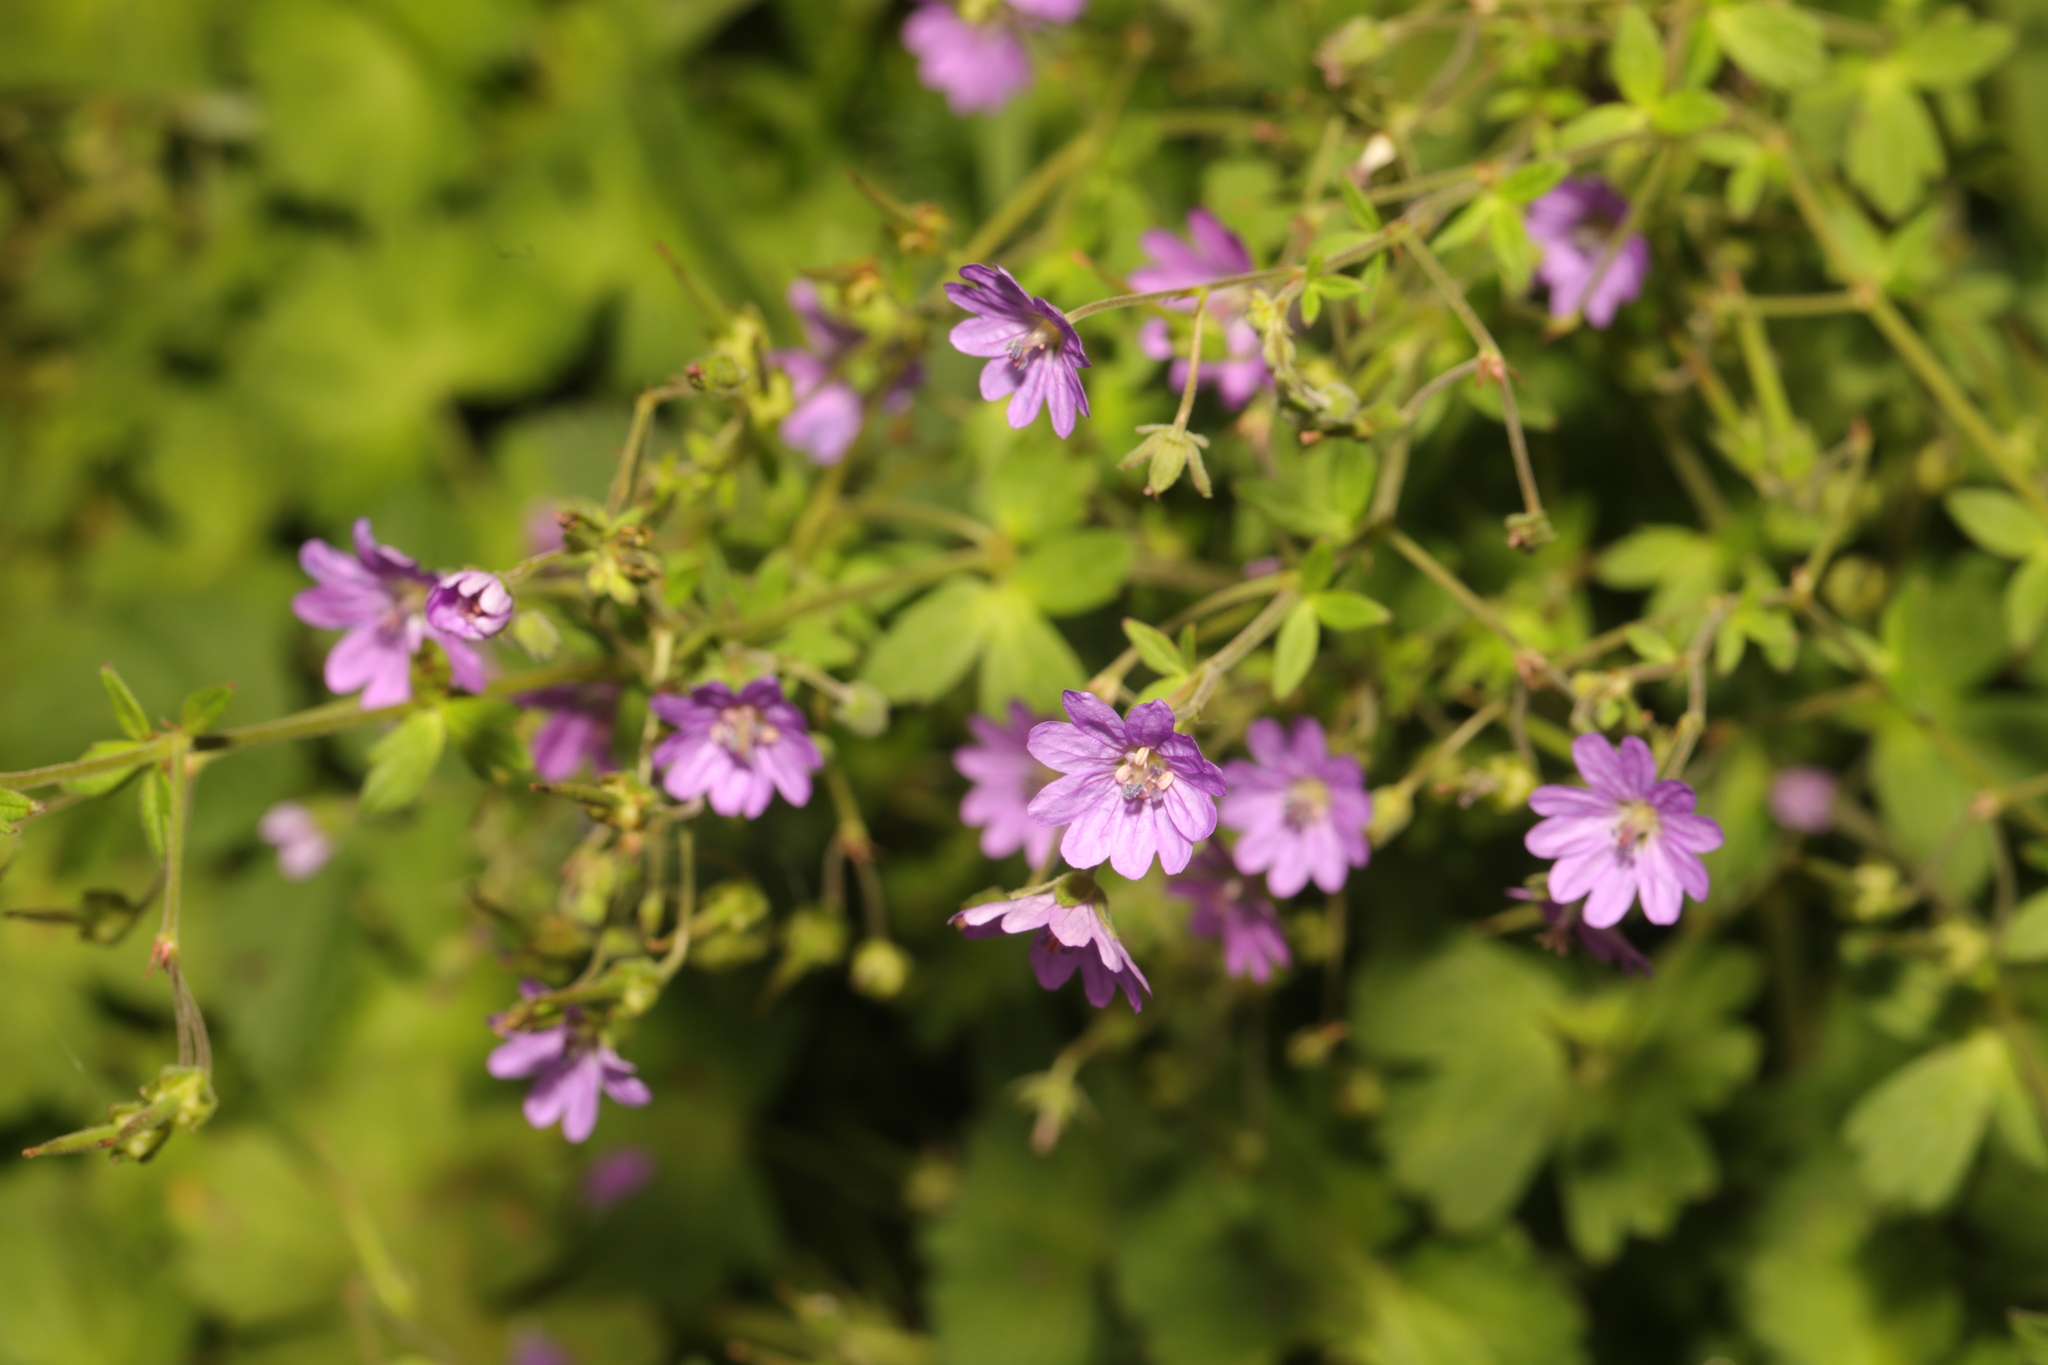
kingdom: Plantae
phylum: Tracheophyta
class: Magnoliopsida
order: Geraniales
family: Geraniaceae
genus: Geranium
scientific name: Geranium pyrenaicum
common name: Hedgerow crane's-bill
